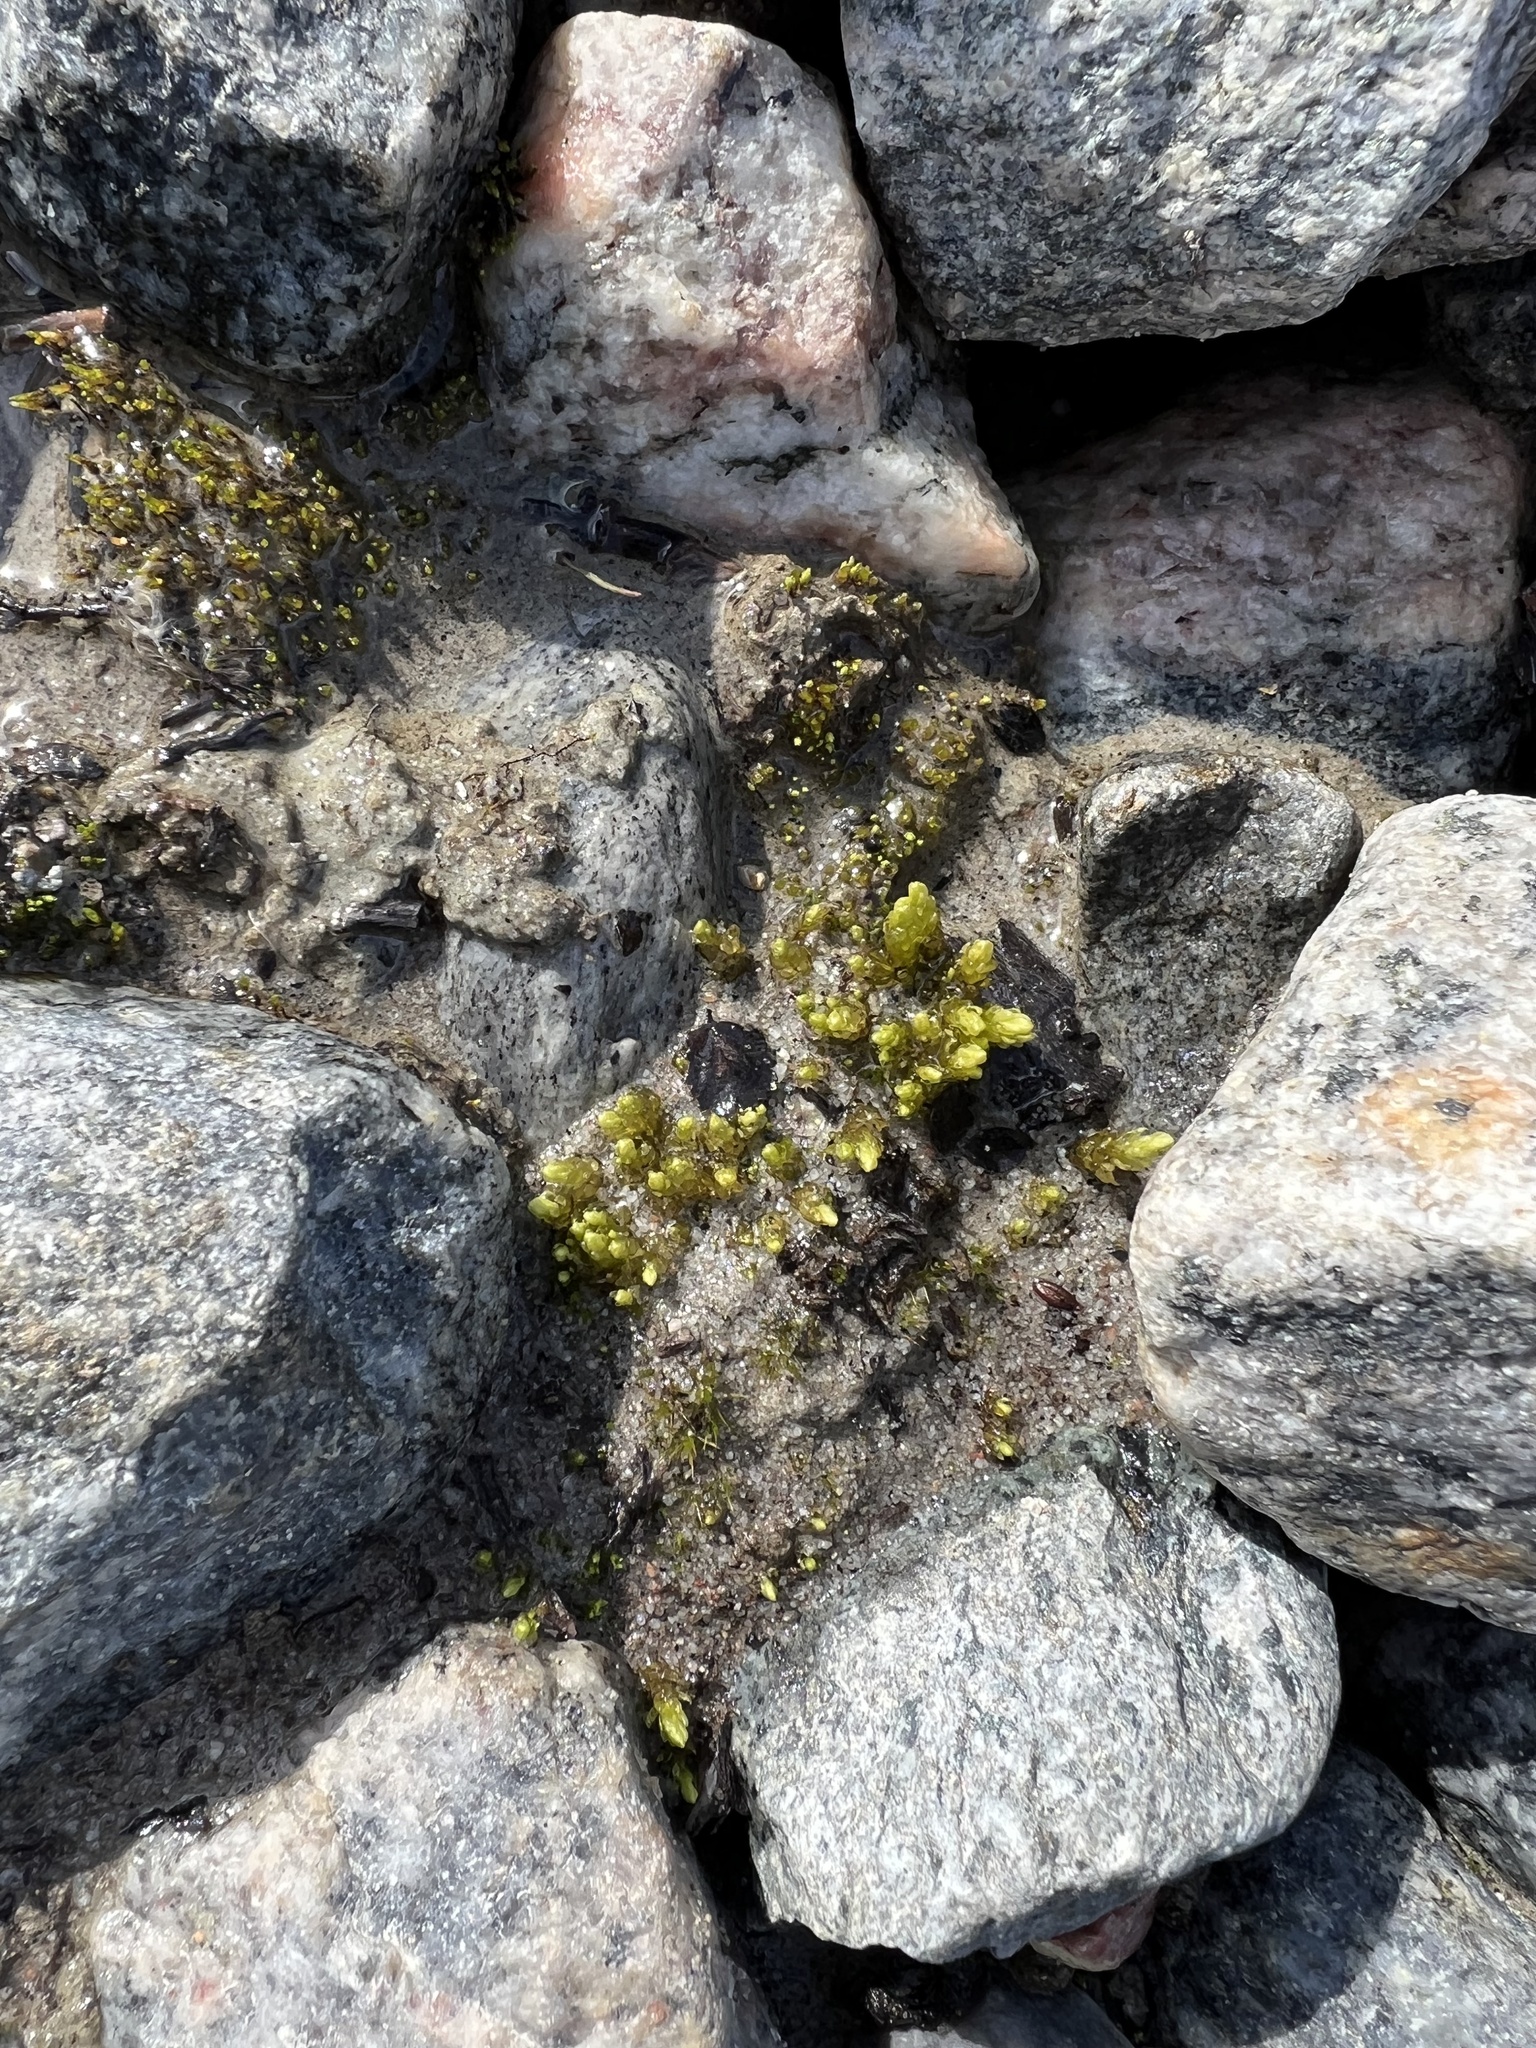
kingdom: Plantae
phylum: Bryophyta
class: Bryopsida
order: Aulacomniales
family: Aulacomniaceae
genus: Aulacomnium
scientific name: Aulacomnium turgidum
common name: Mountain groove moss
